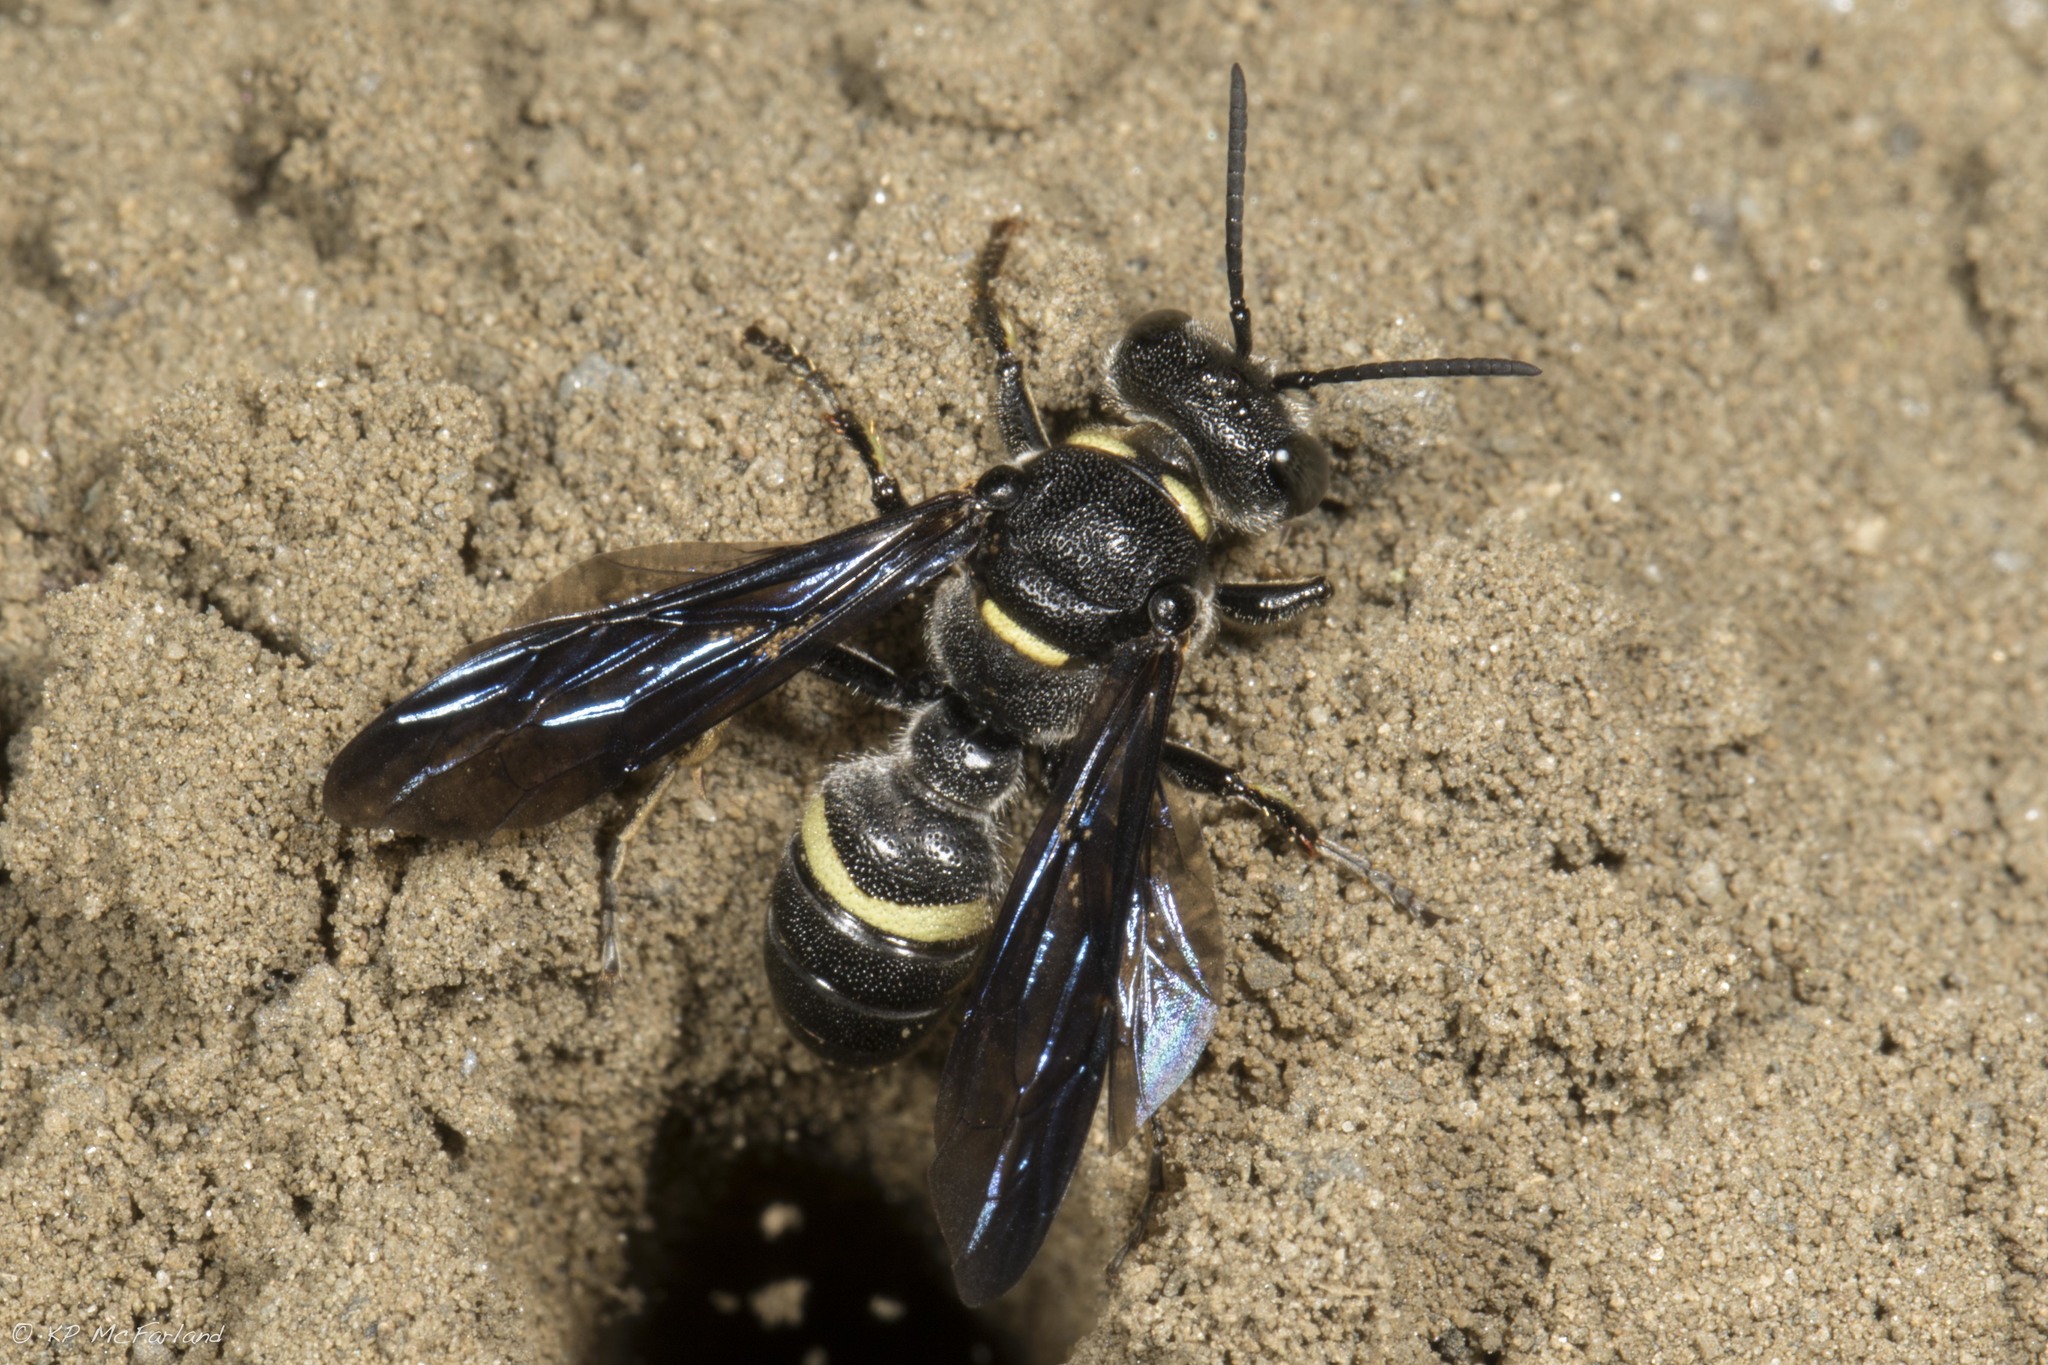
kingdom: Animalia
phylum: Arthropoda
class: Insecta
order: Hymenoptera
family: Crabronidae
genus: Cerceris
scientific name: Cerceris fumipennis
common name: Smokey-winged beetle bandit wasp
